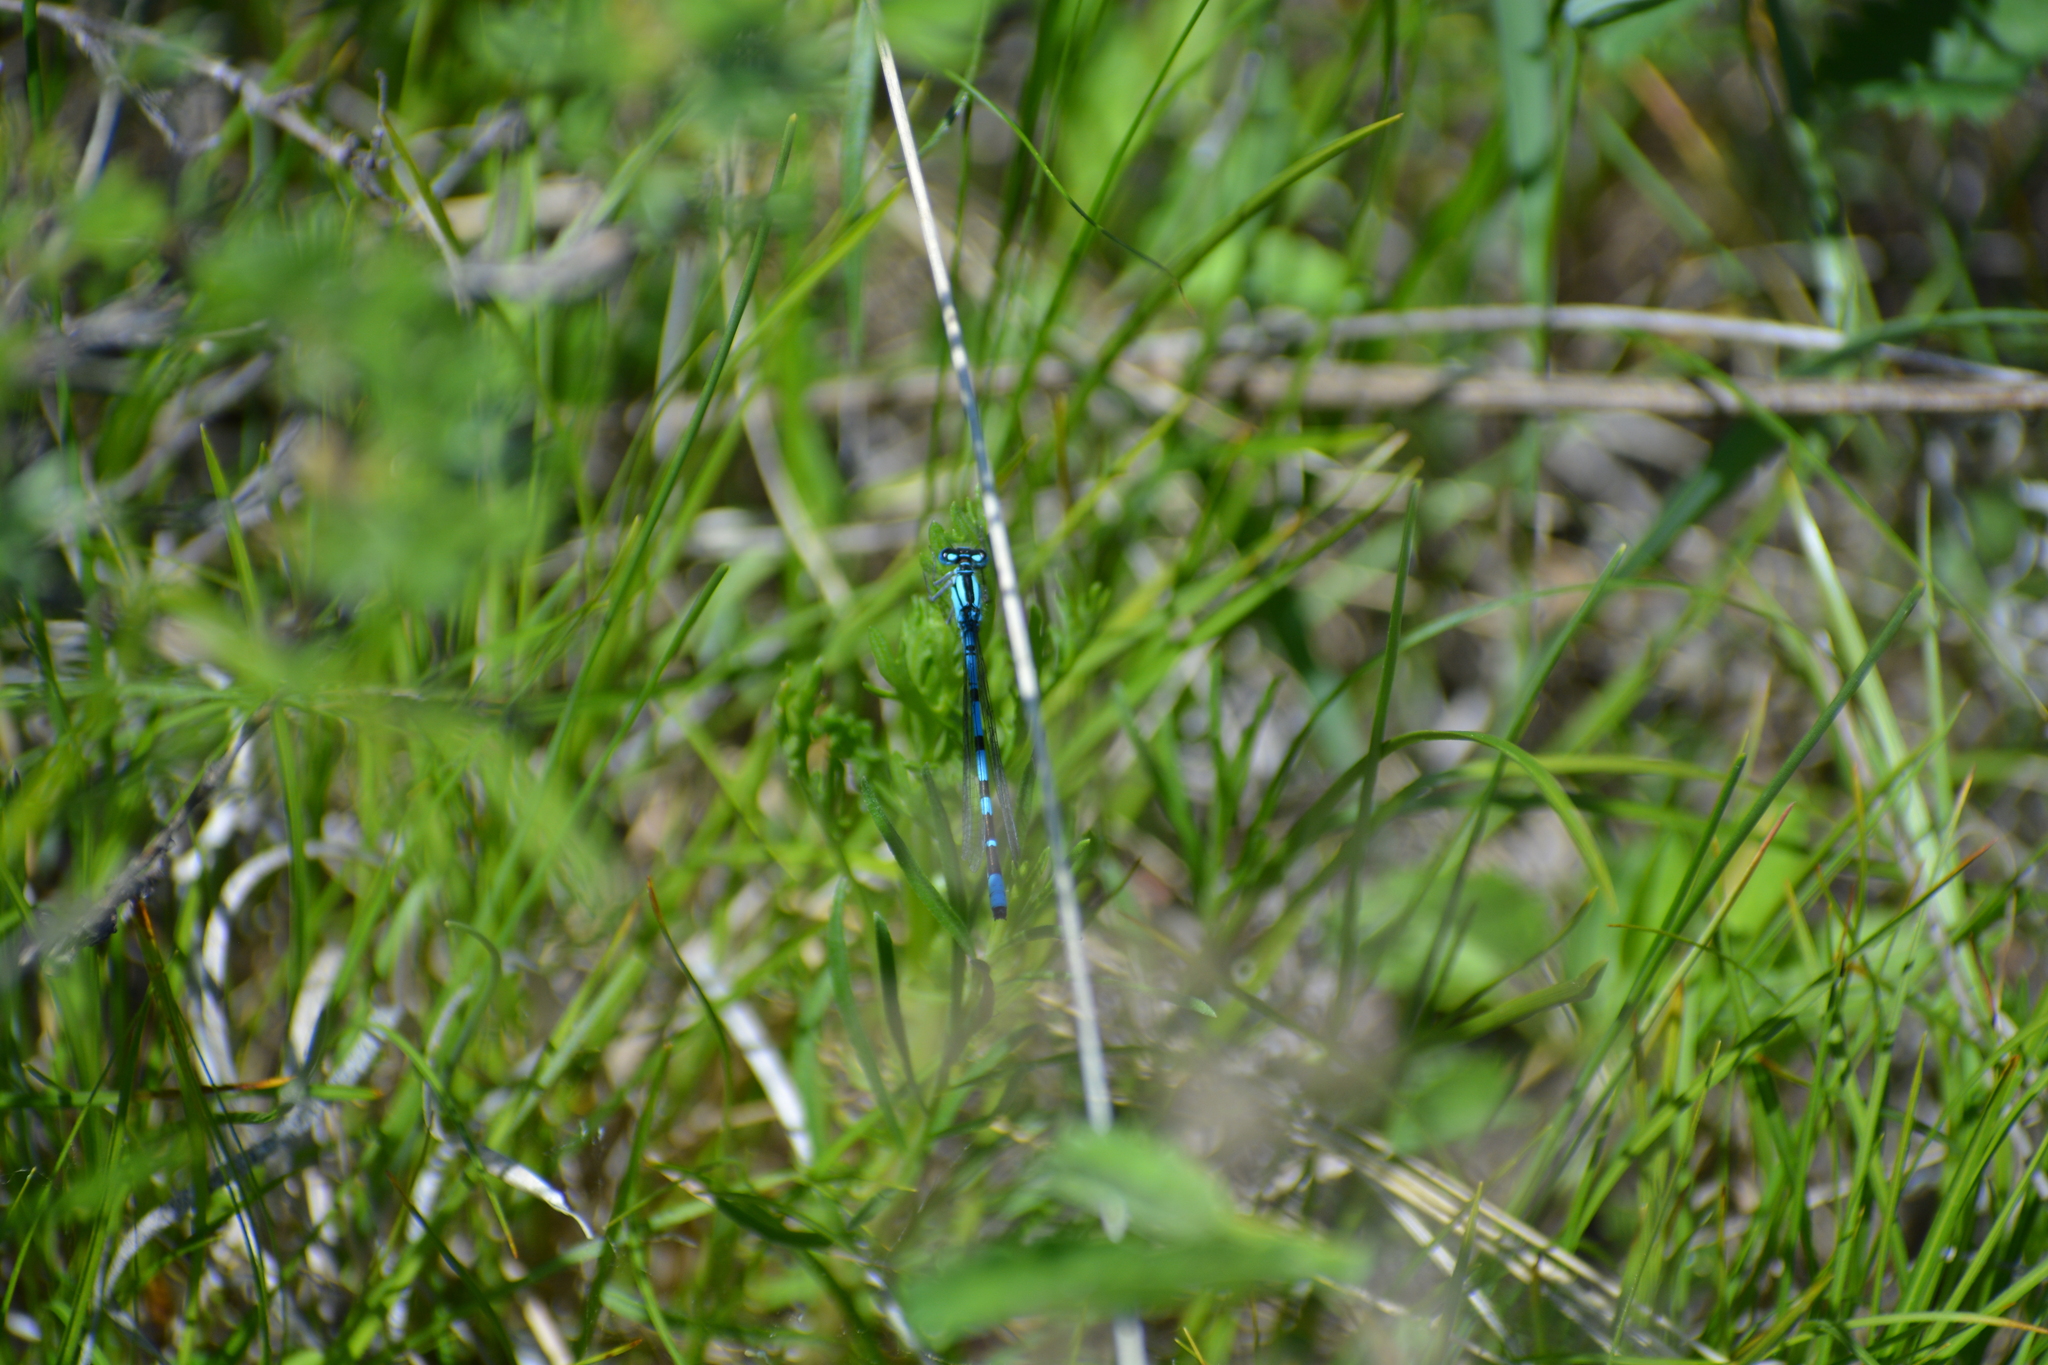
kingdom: Animalia
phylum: Arthropoda
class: Insecta
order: Odonata
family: Coenagrionidae
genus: Enallagma
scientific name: Enallagma cyathigerum
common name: Common blue damselfly
